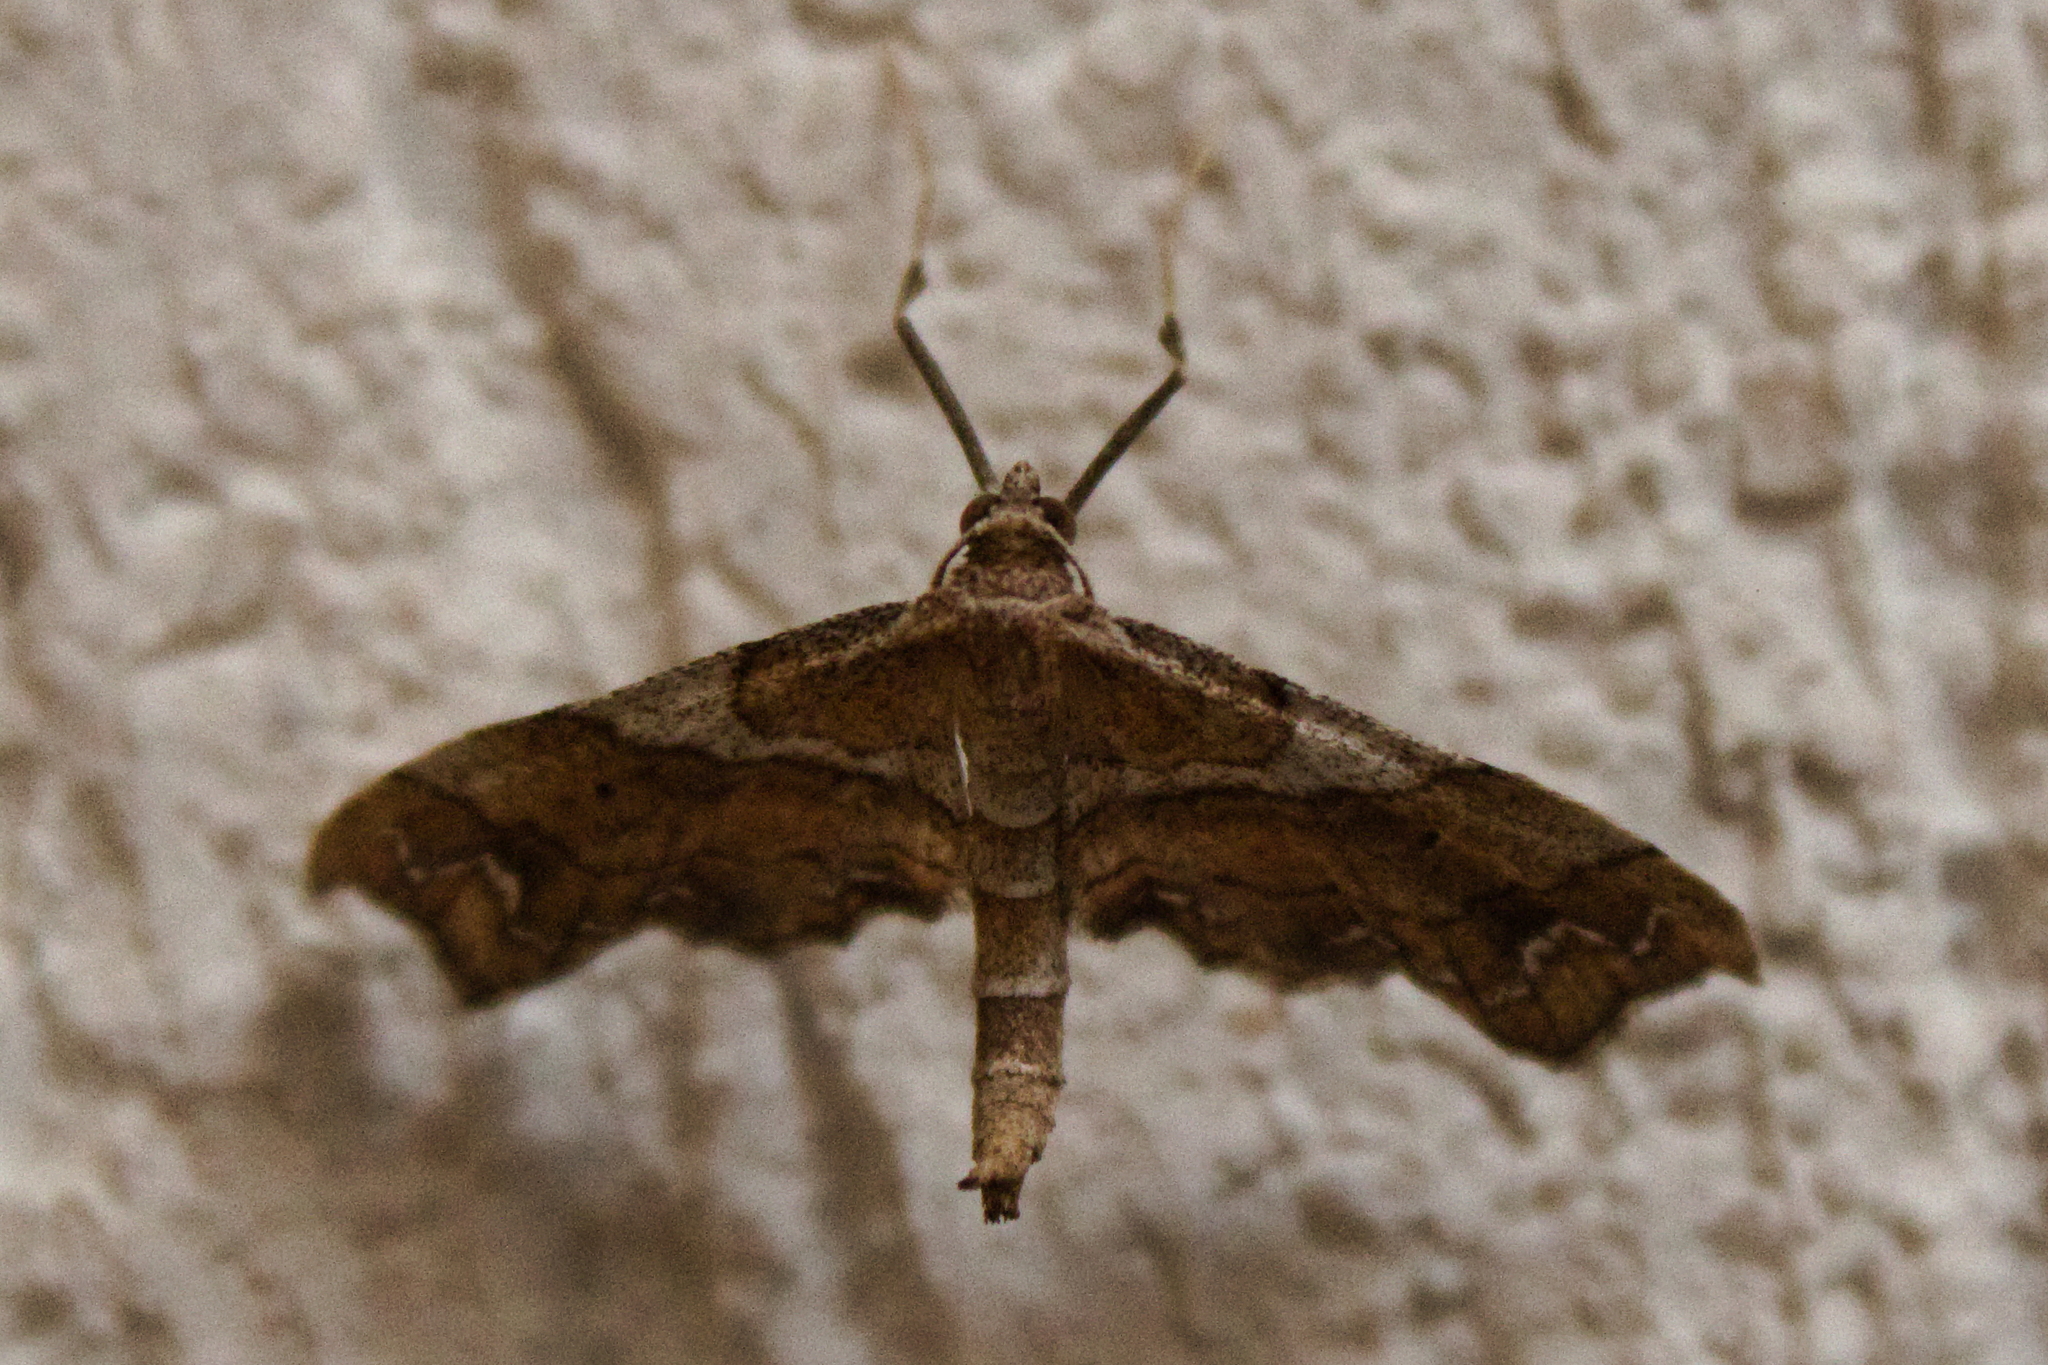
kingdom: Animalia
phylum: Arthropoda
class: Insecta
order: Lepidoptera
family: Geometridae
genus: Odontoptila
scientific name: Odontoptila obrimo
